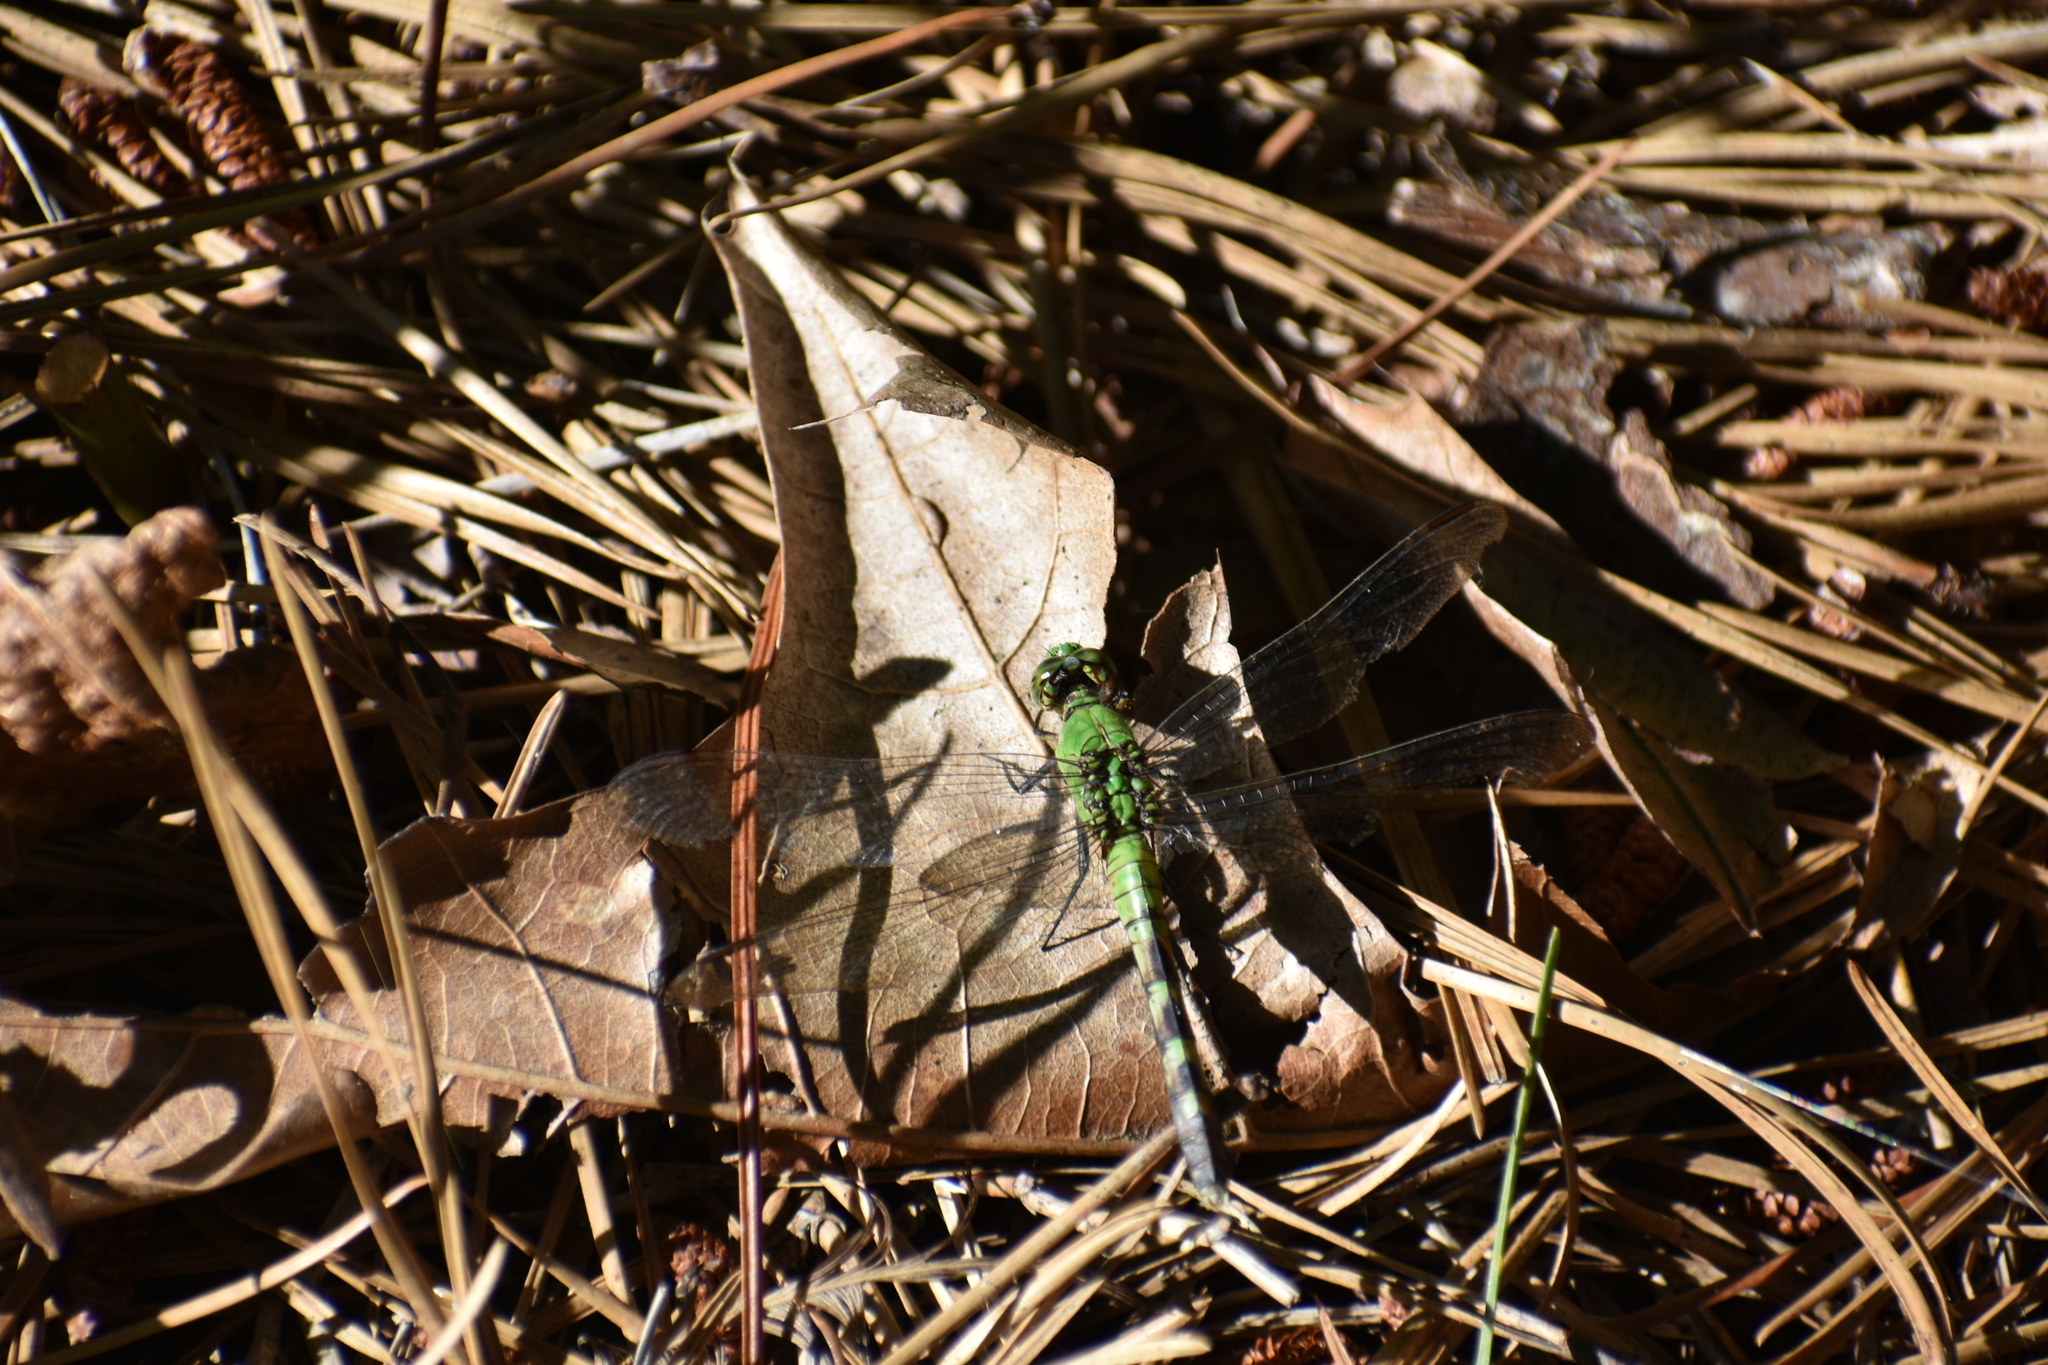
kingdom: Animalia
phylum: Arthropoda
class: Insecta
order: Odonata
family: Libellulidae
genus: Erythemis
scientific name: Erythemis simplicicollis
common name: Eastern pondhawk
